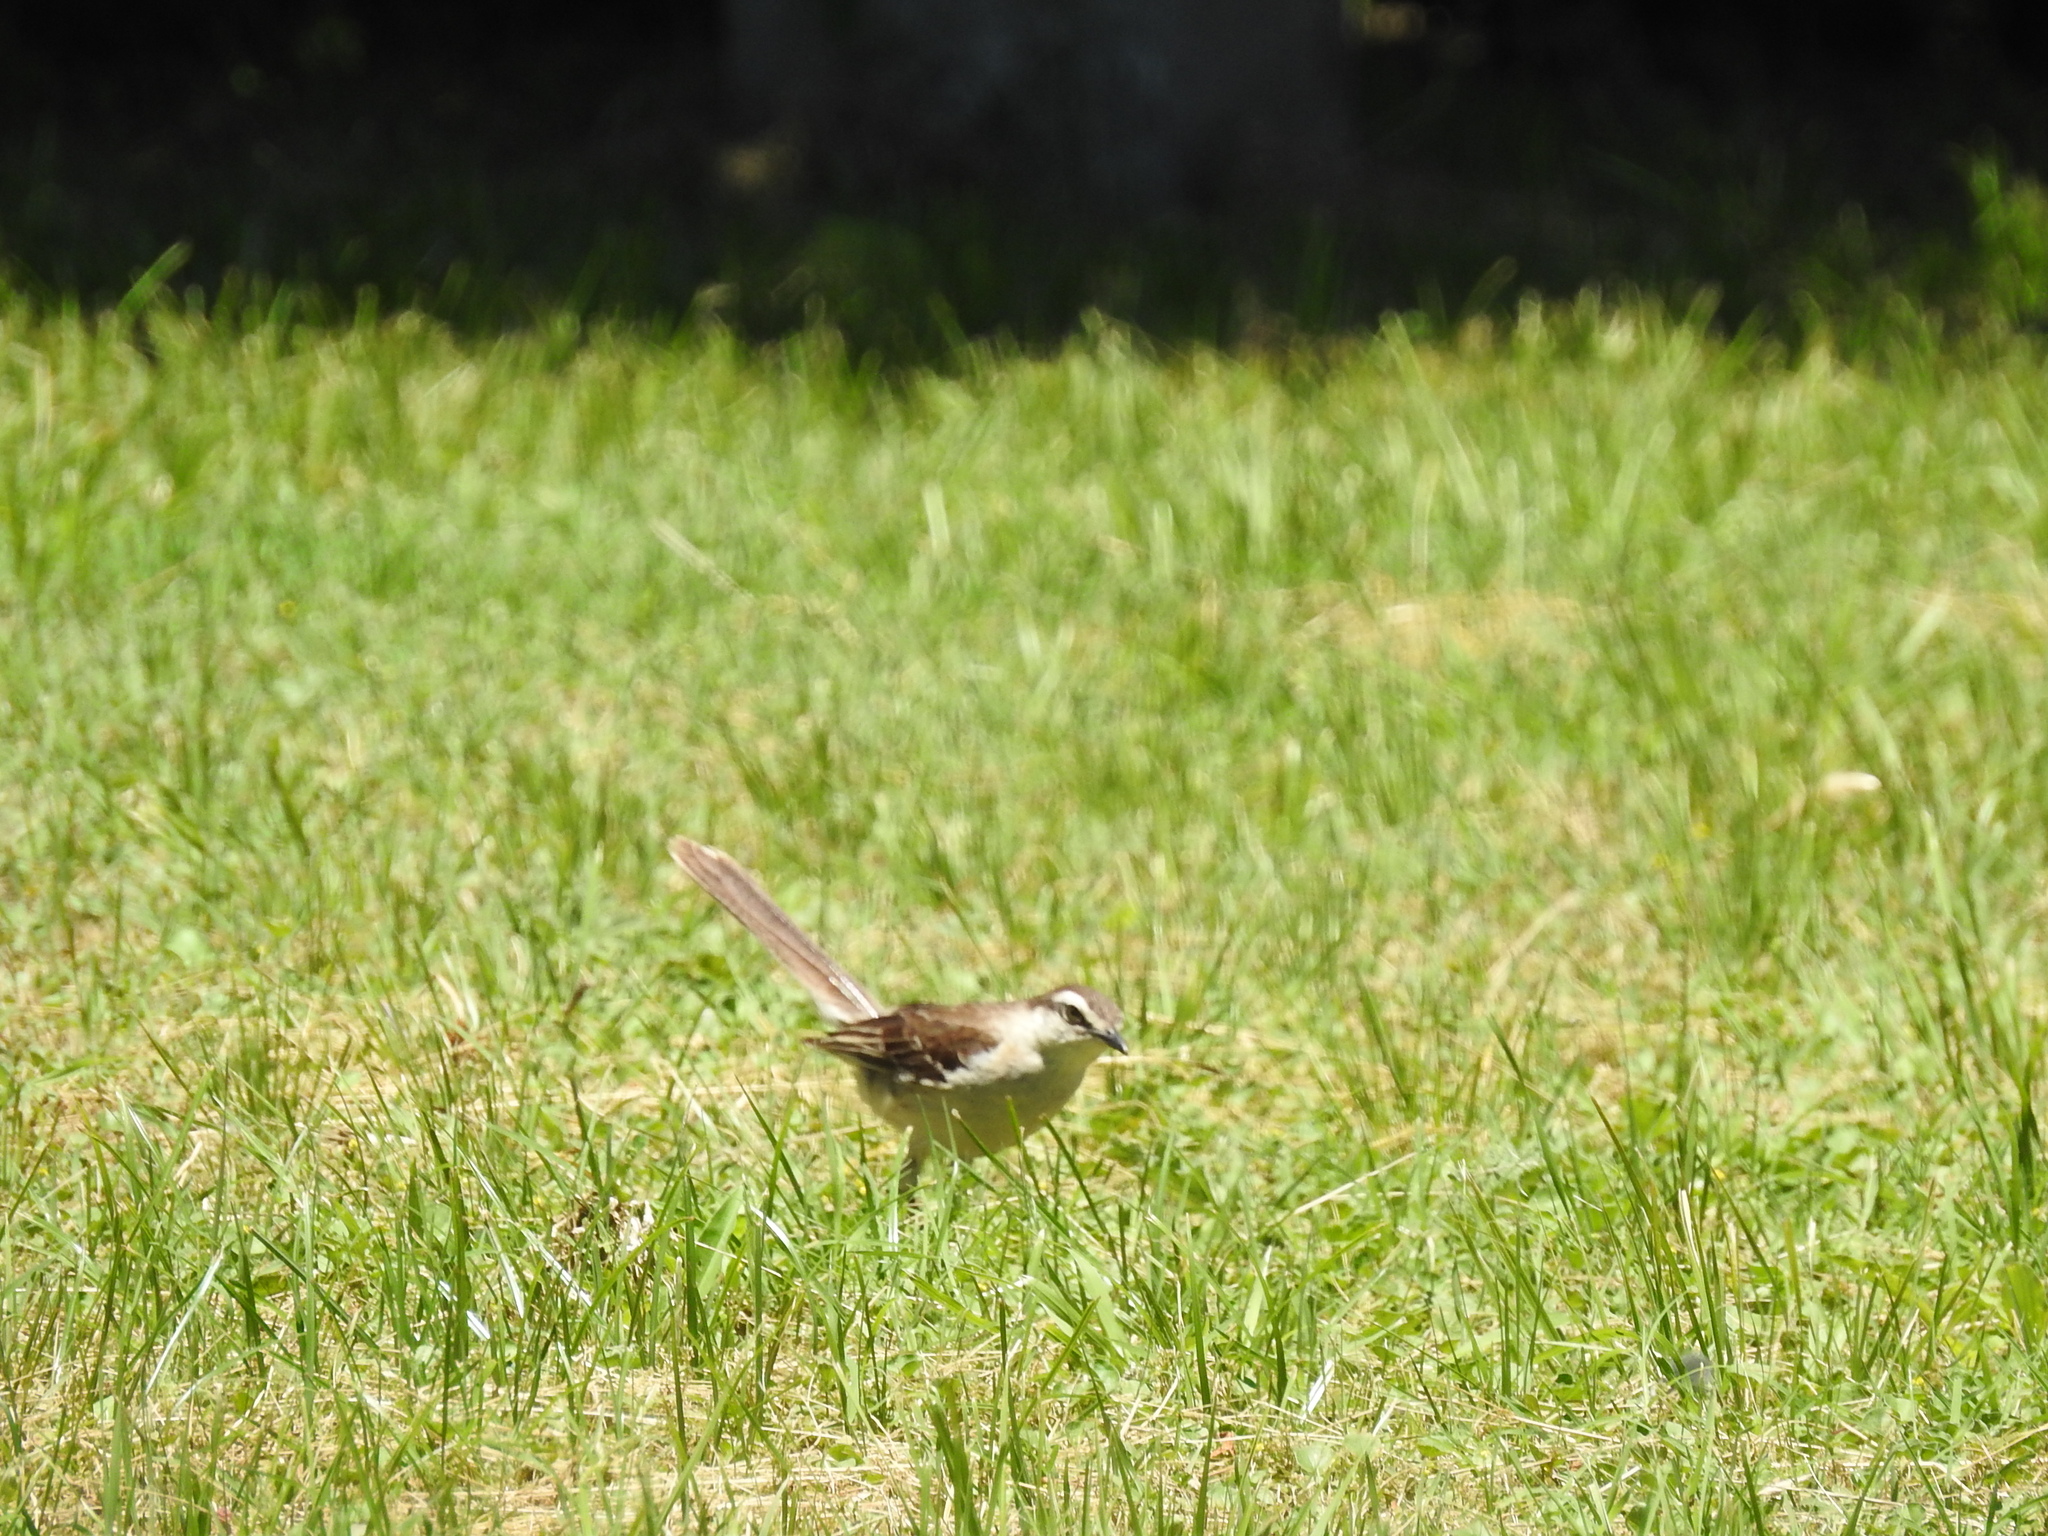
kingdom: Animalia
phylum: Chordata
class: Aves
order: Passeriformes
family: Mimidae
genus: Mimus
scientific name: Mimus saturninus
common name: Chalk-browed mockingbird
